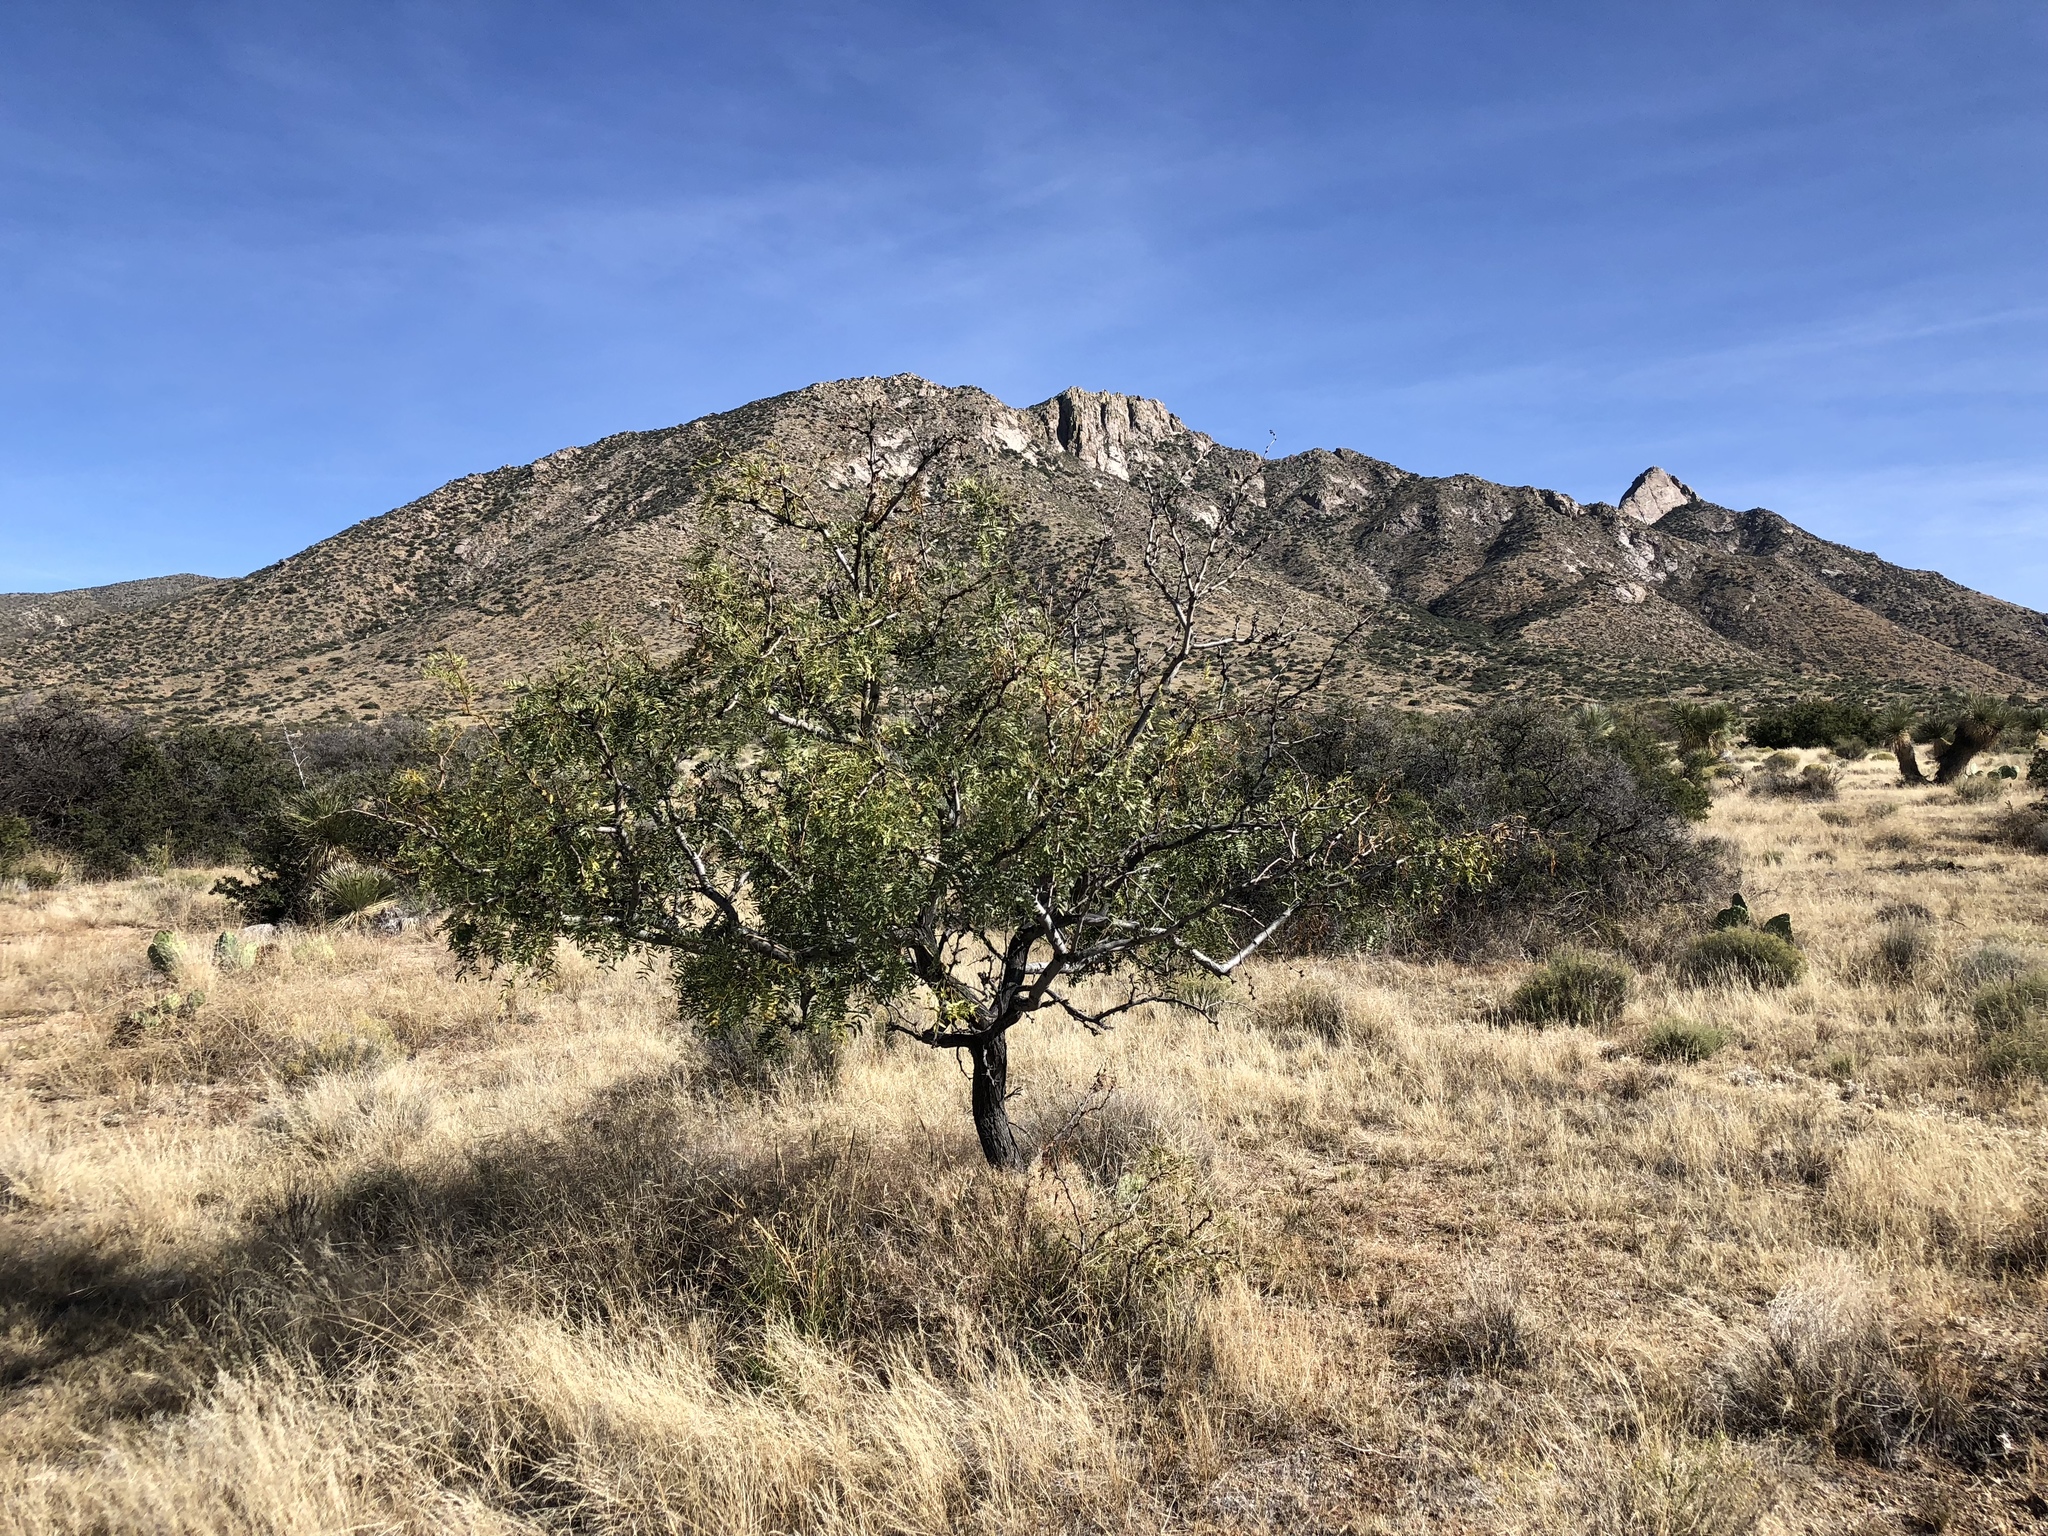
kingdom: Plantae
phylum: Tracheophyta
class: Magnoliopsida
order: Fabales
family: Fabaceae
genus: Prosopis
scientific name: Prosopis glandulosa
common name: Honey mesquite
